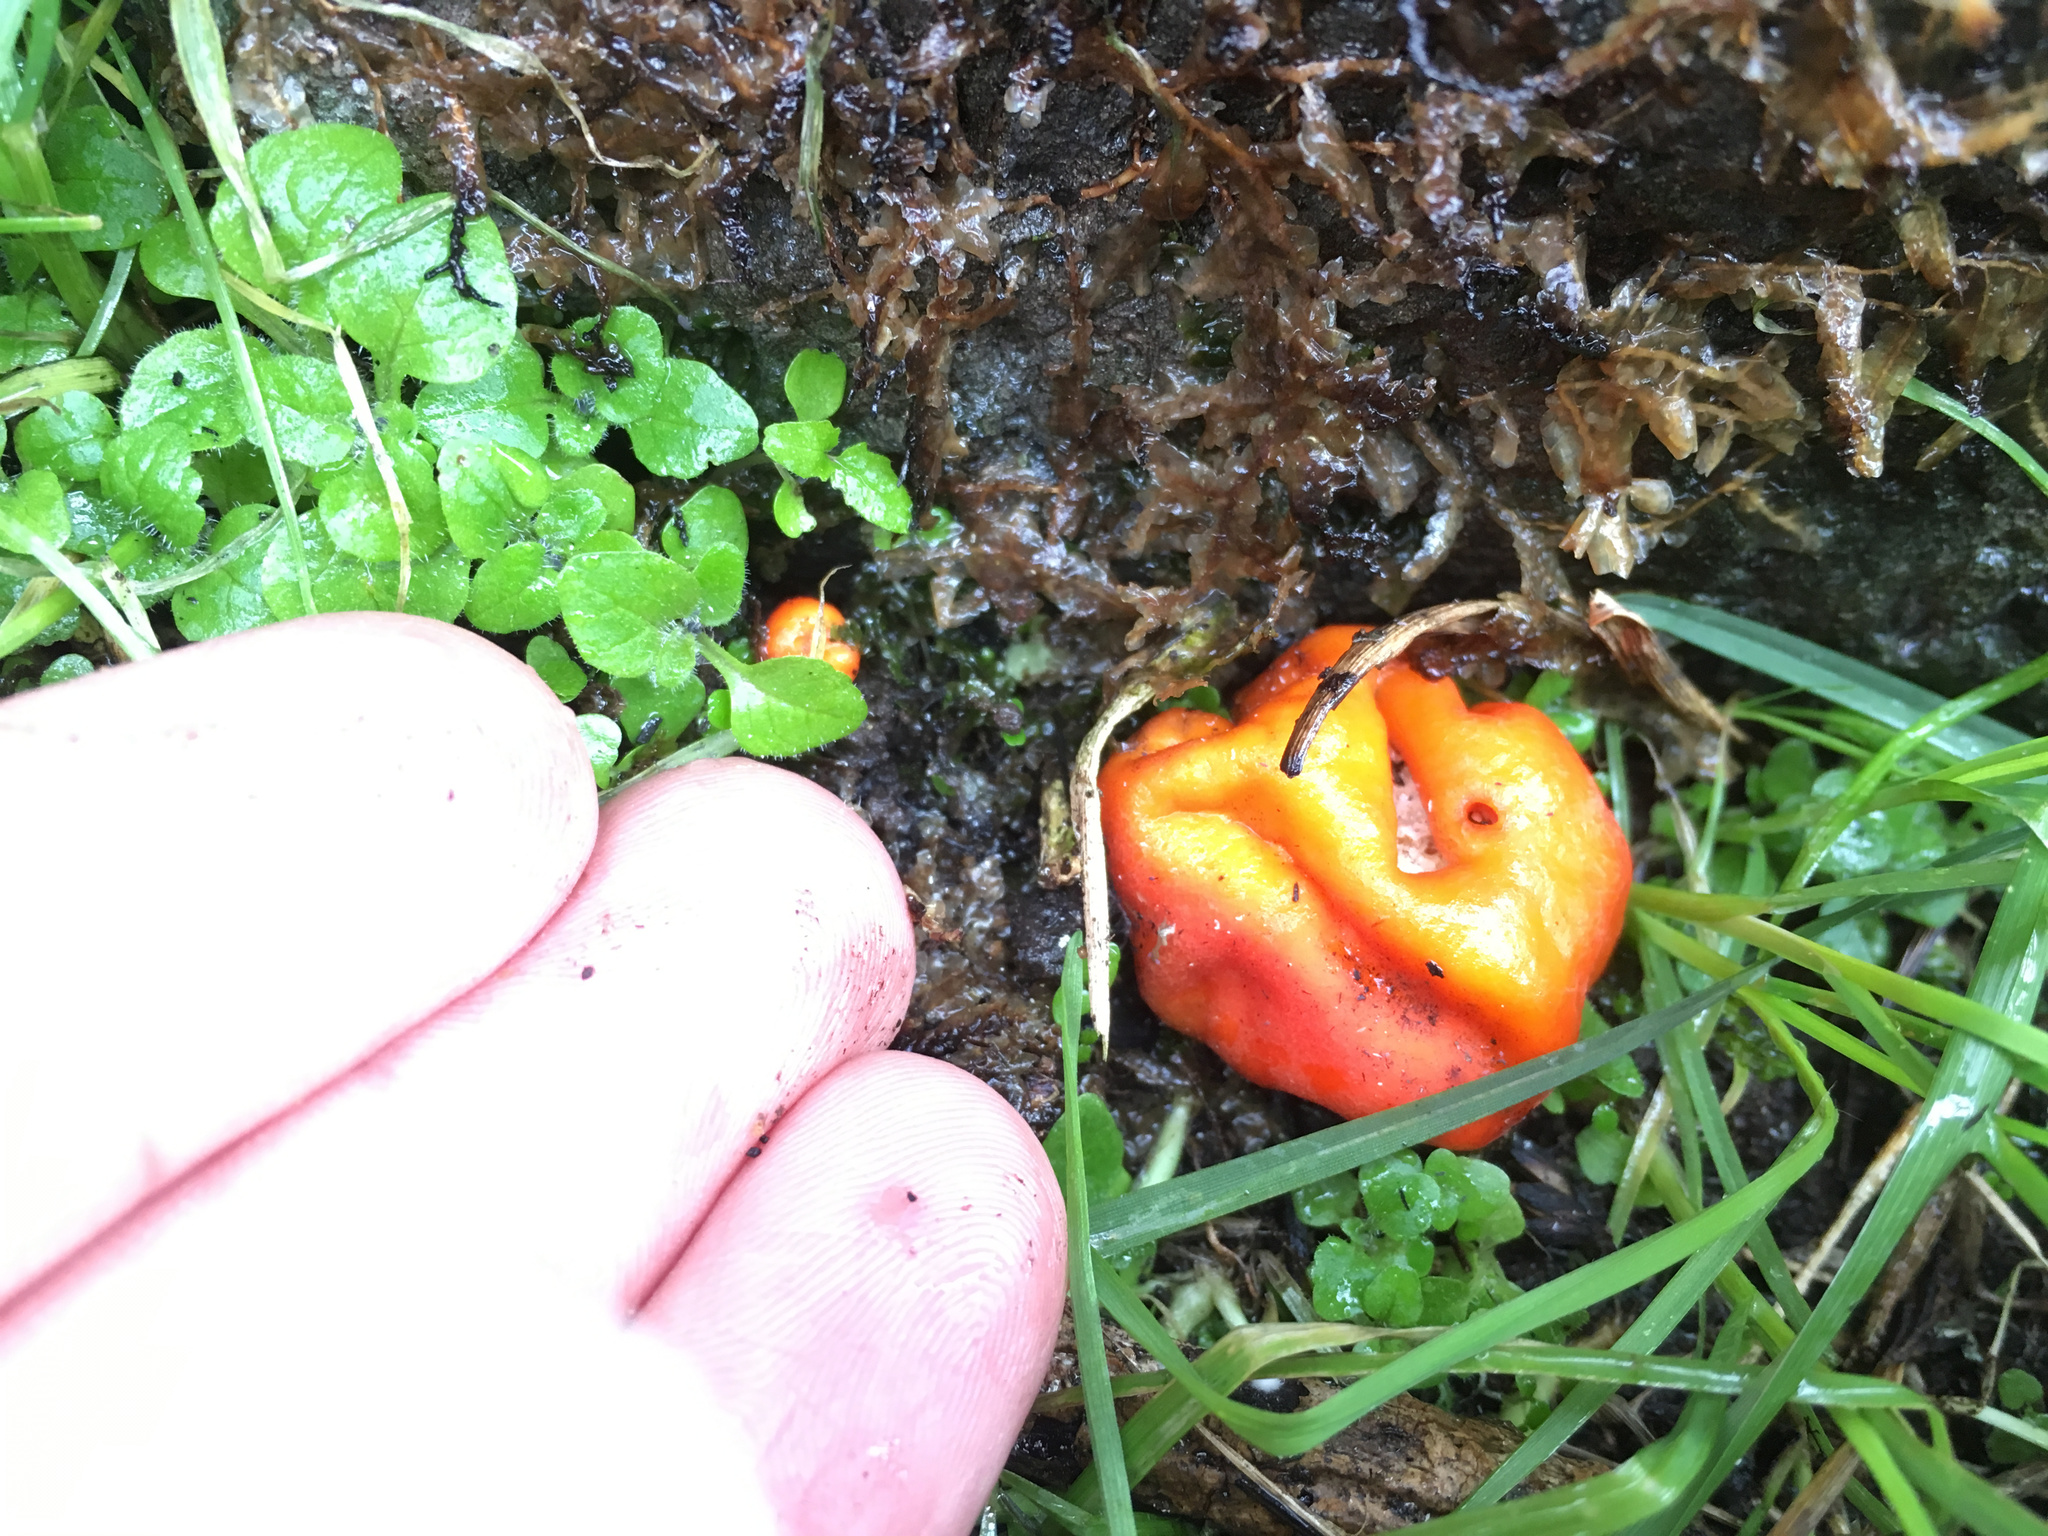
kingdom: Fungi
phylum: Ascomycota
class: Pezizomycetes
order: Pezizales
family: Pyronemataceae
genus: Paurocotylis
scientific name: Paurocotylis pila
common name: Scarlet berry truffle
